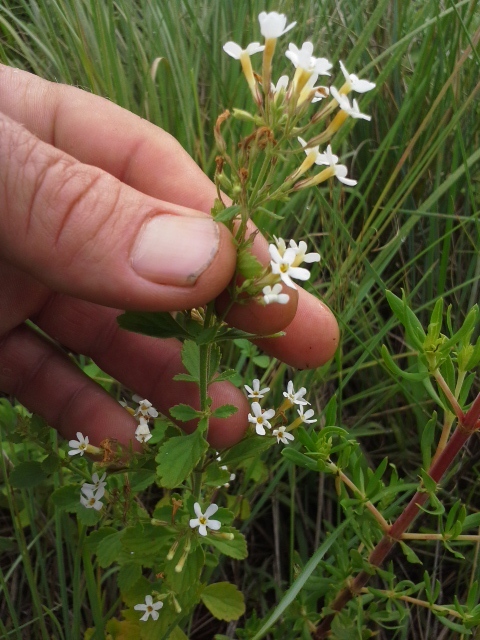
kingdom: Plantae
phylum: Tracheophyta
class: Magnoliopsida
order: Lamiales
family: Scrophulariaceae
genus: Chaenostoma
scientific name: Chaenostoma floribundum
